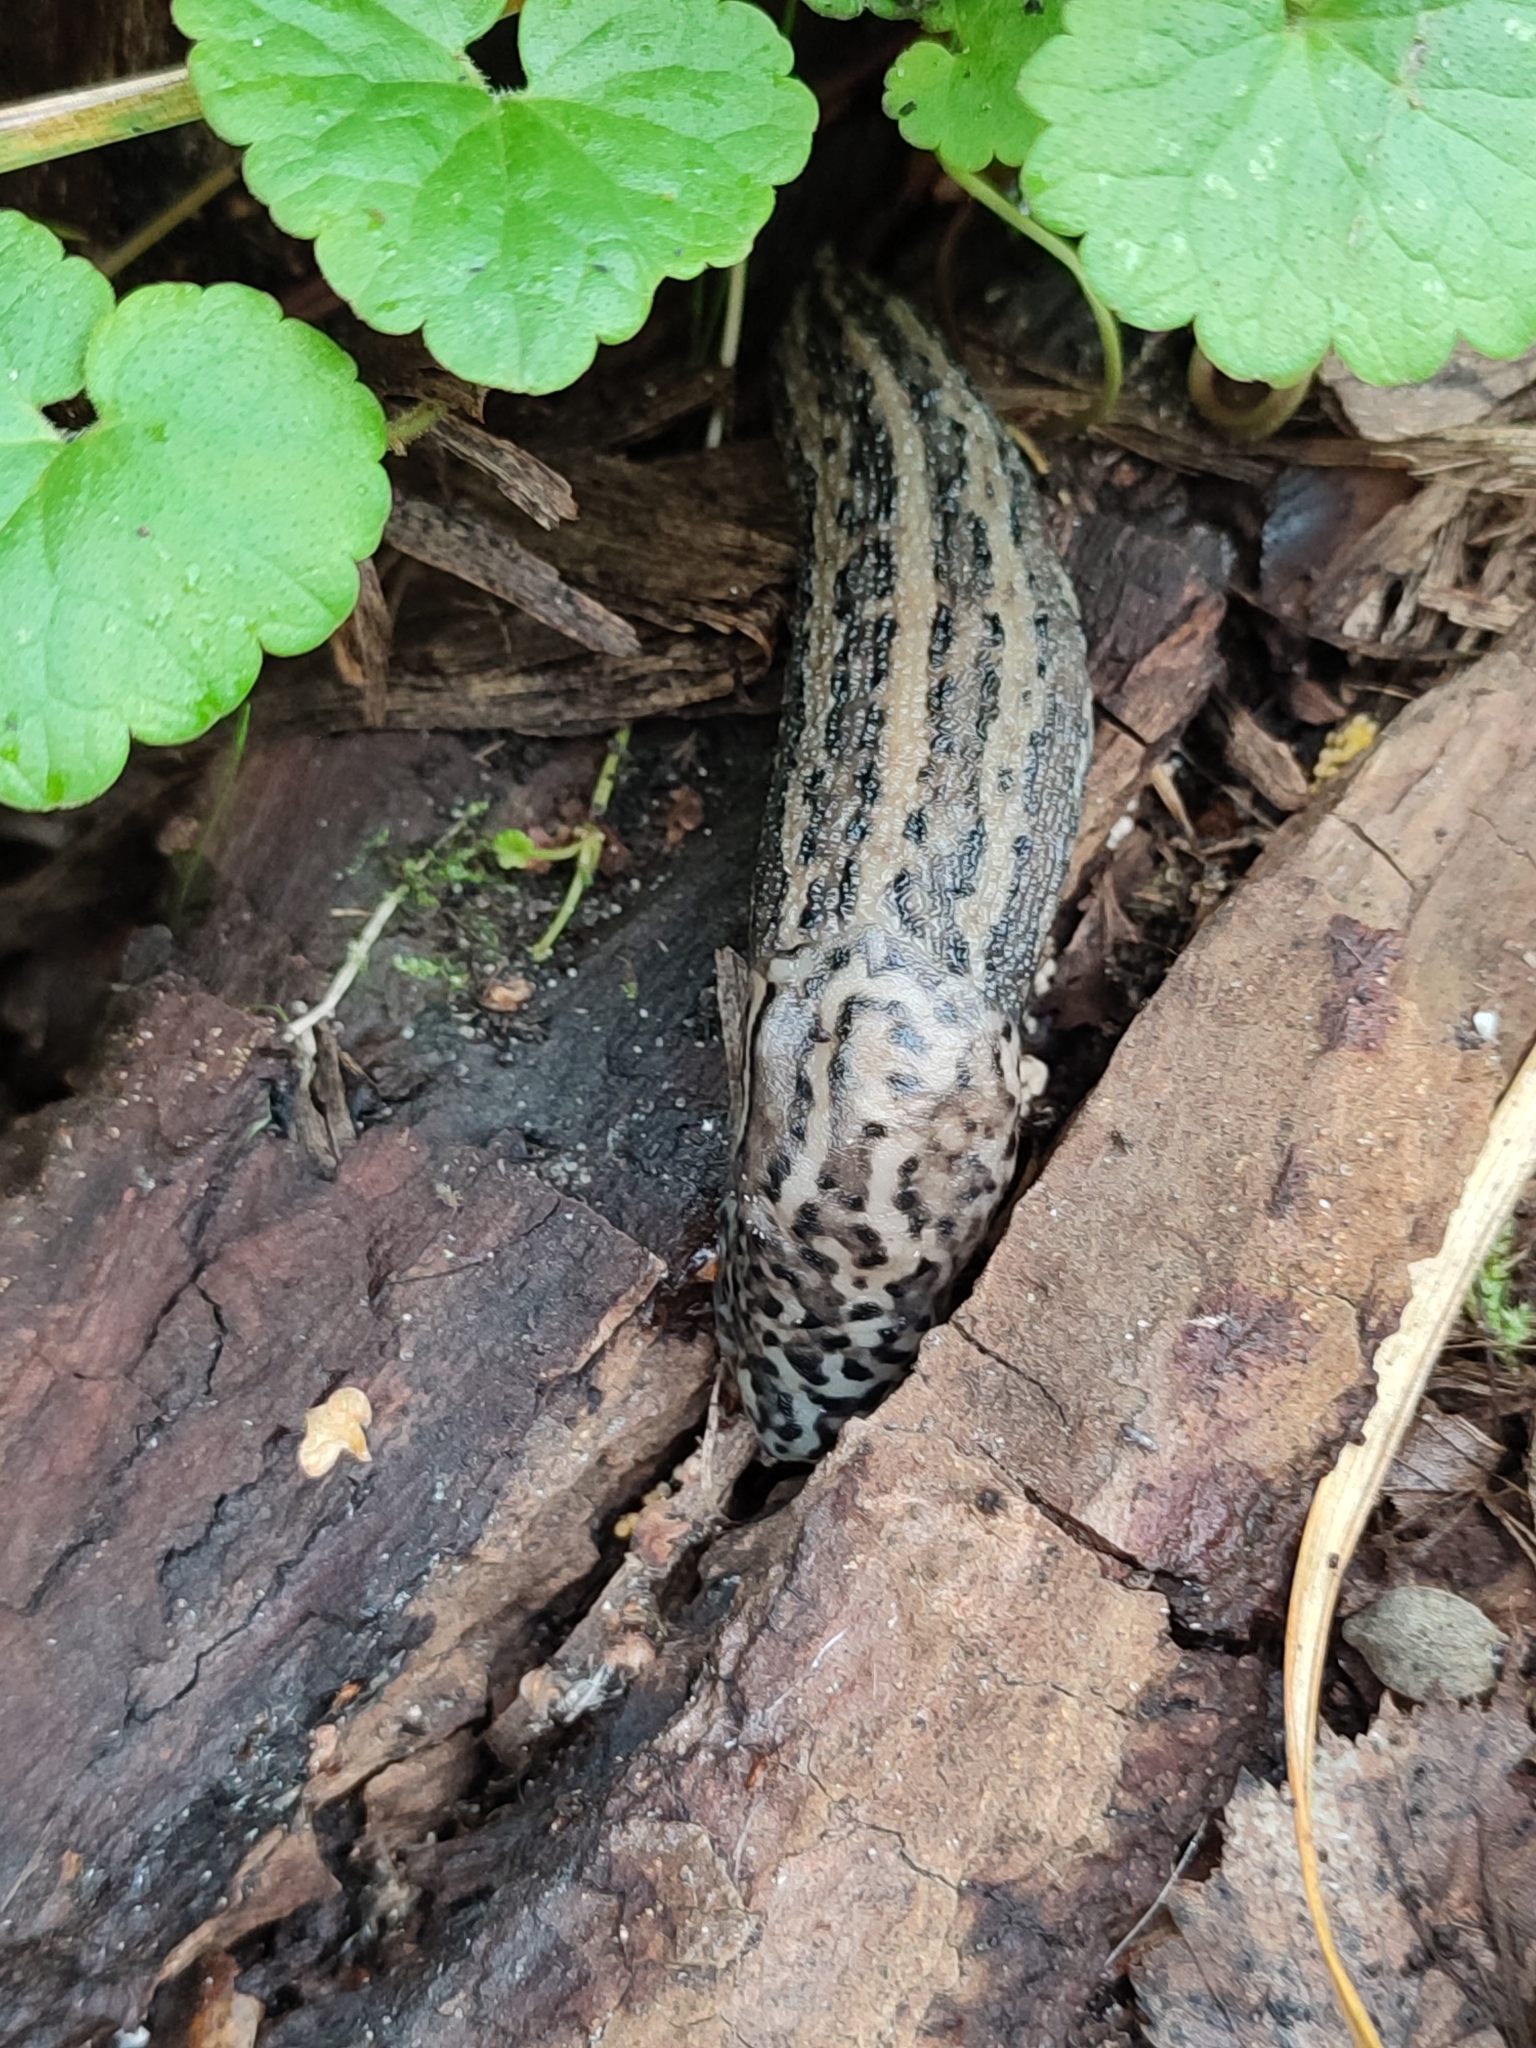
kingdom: Animalia
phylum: Mollusca
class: Gastropoda
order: Stylommatophora
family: Limacidae
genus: Limax
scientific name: Limax maximus
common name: Great grey slug
